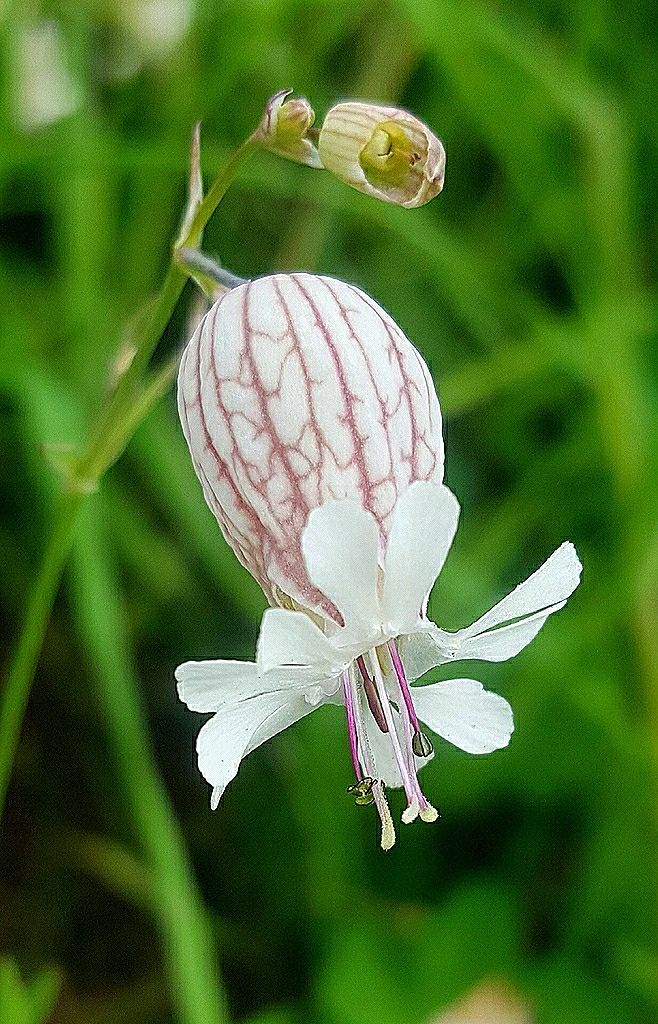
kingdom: Plantae
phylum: Tracheophyta
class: Magnoliopsida
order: Caryophyllales
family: Caryophyllaceae
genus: Silene
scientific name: Silene vulgaris
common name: Bladder campion
